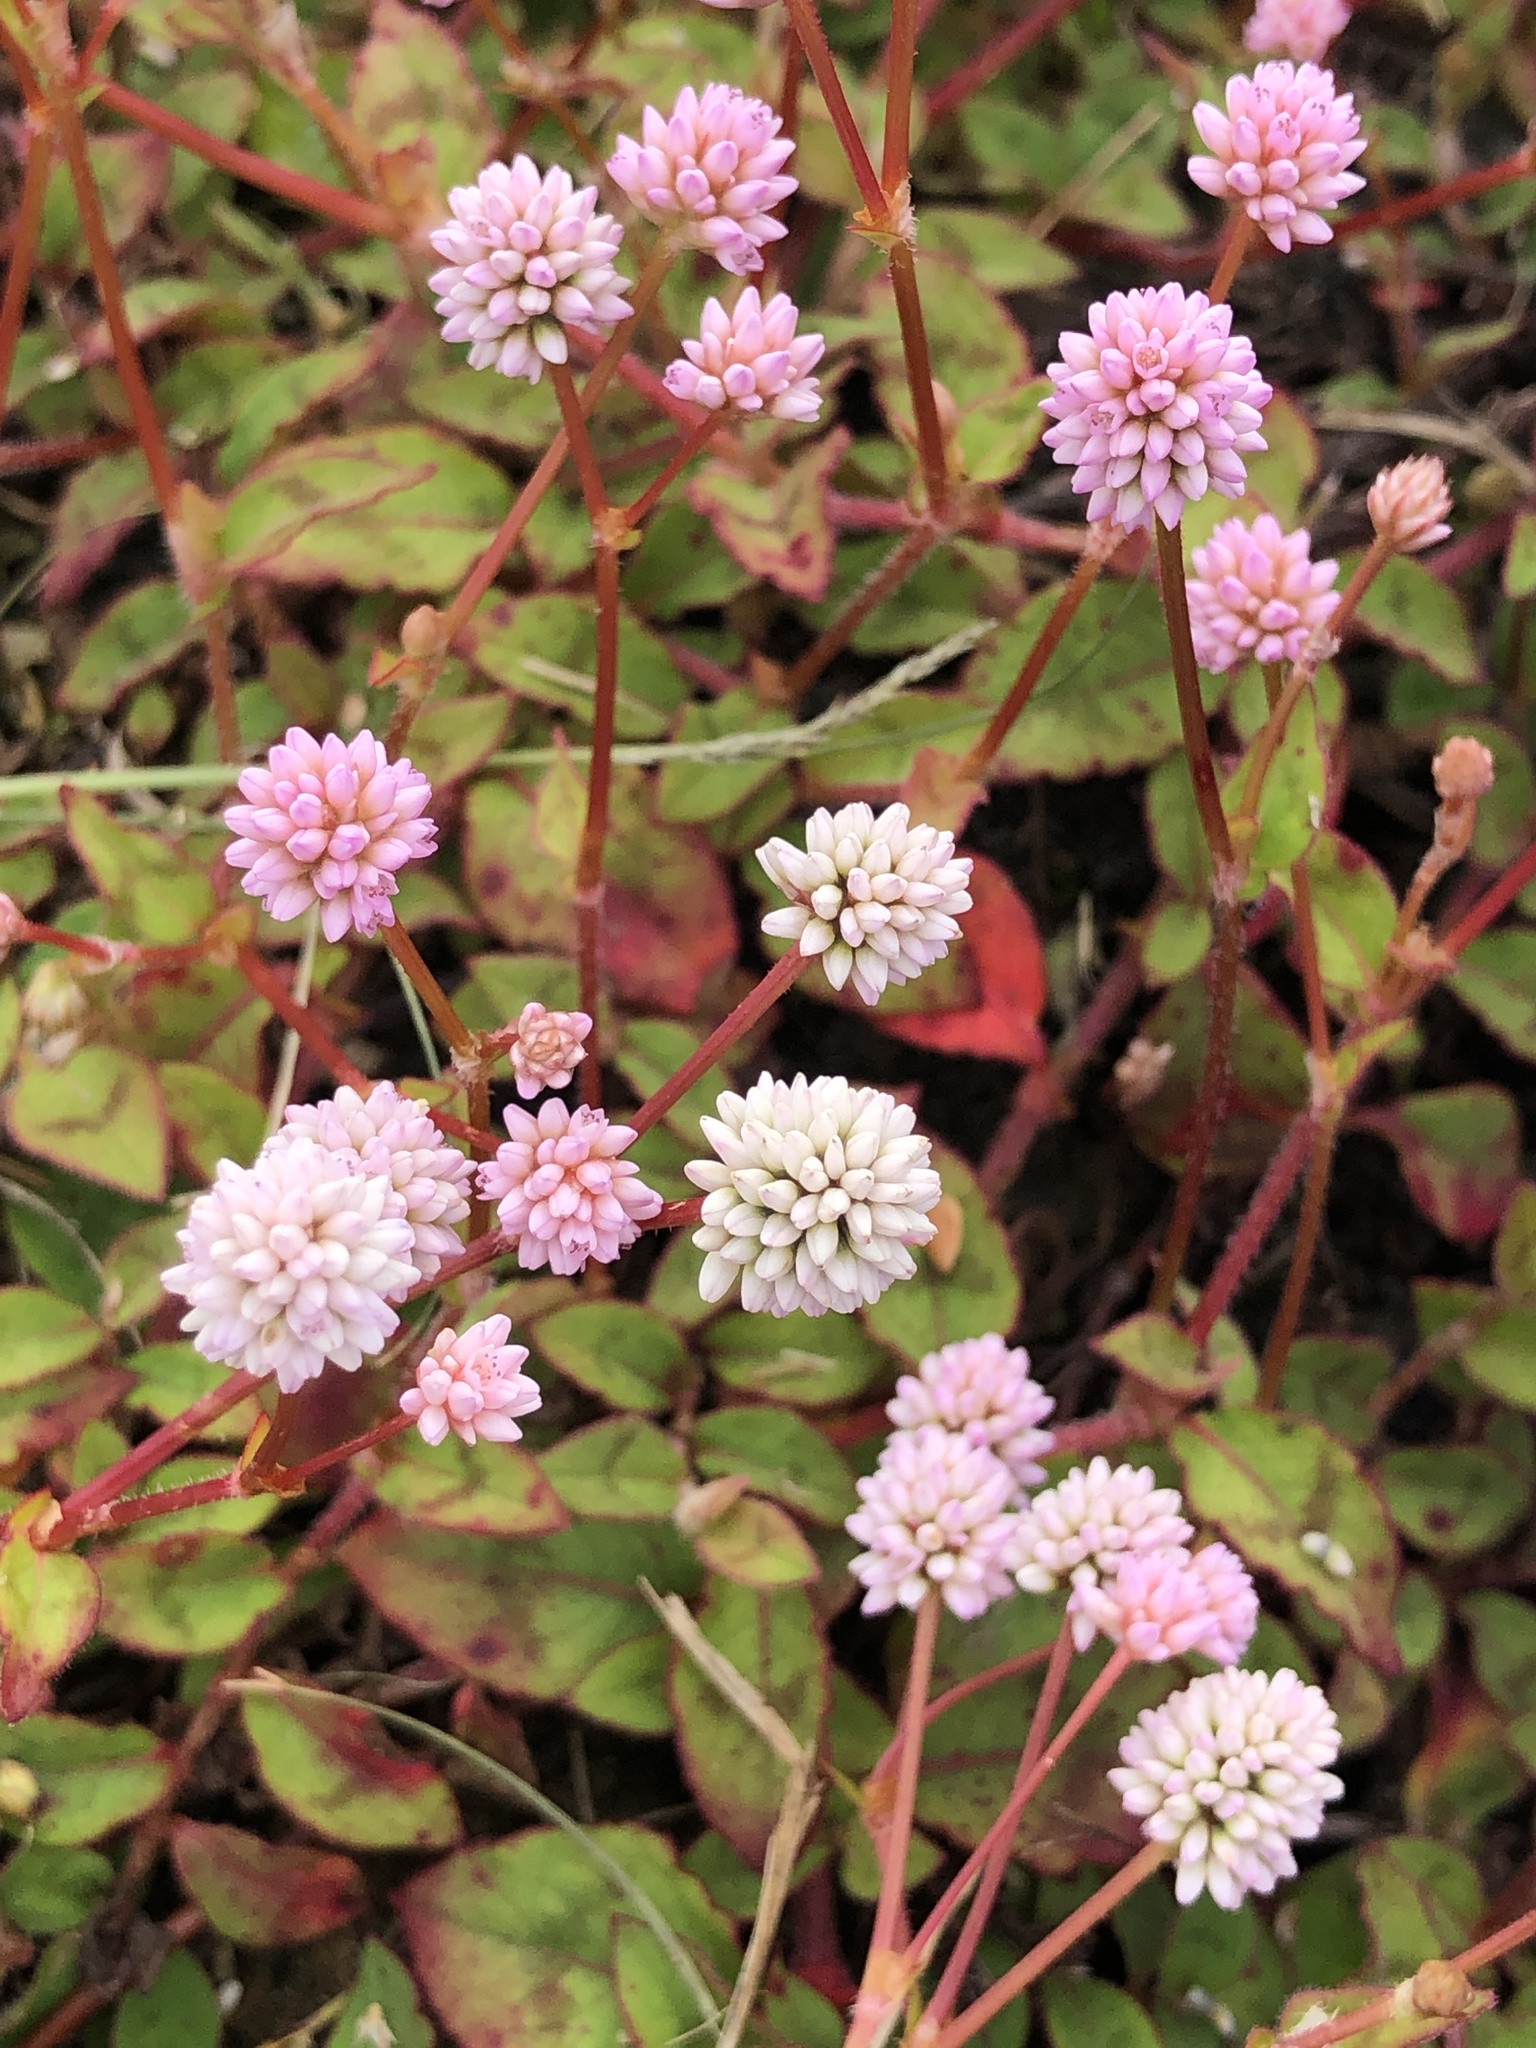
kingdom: Plantae
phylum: Tracheophyta
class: Magnoliopsida
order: Caryophyllales
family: Polygonaceae
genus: Persicaria
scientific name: Persicaria capitata
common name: Pinkhead smartweed
